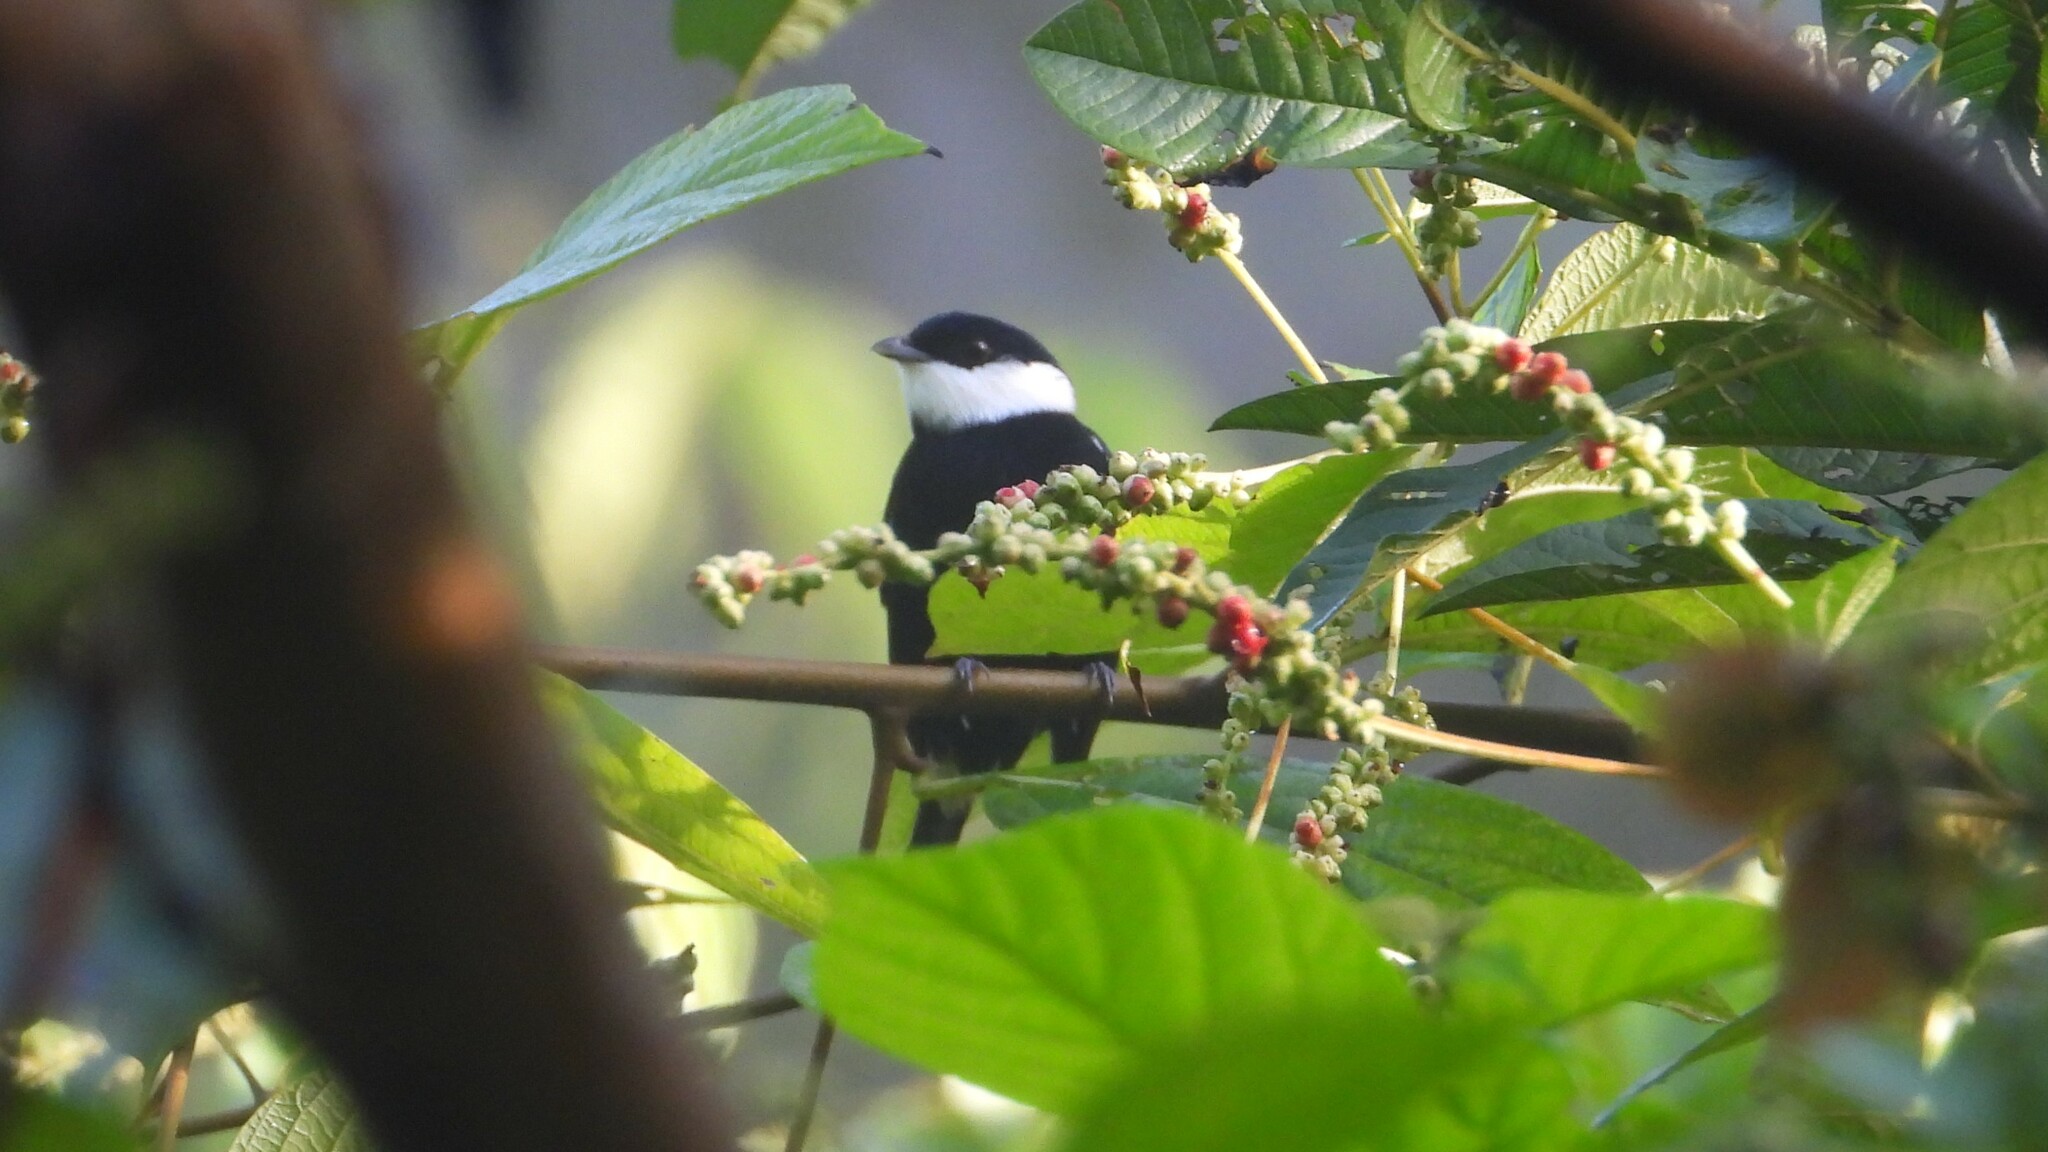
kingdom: Animalia
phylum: Chordata
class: Aves
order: Passeriformes
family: Pipridae
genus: Corapipo
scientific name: Corapipo altera
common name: White-ruffed manakin
